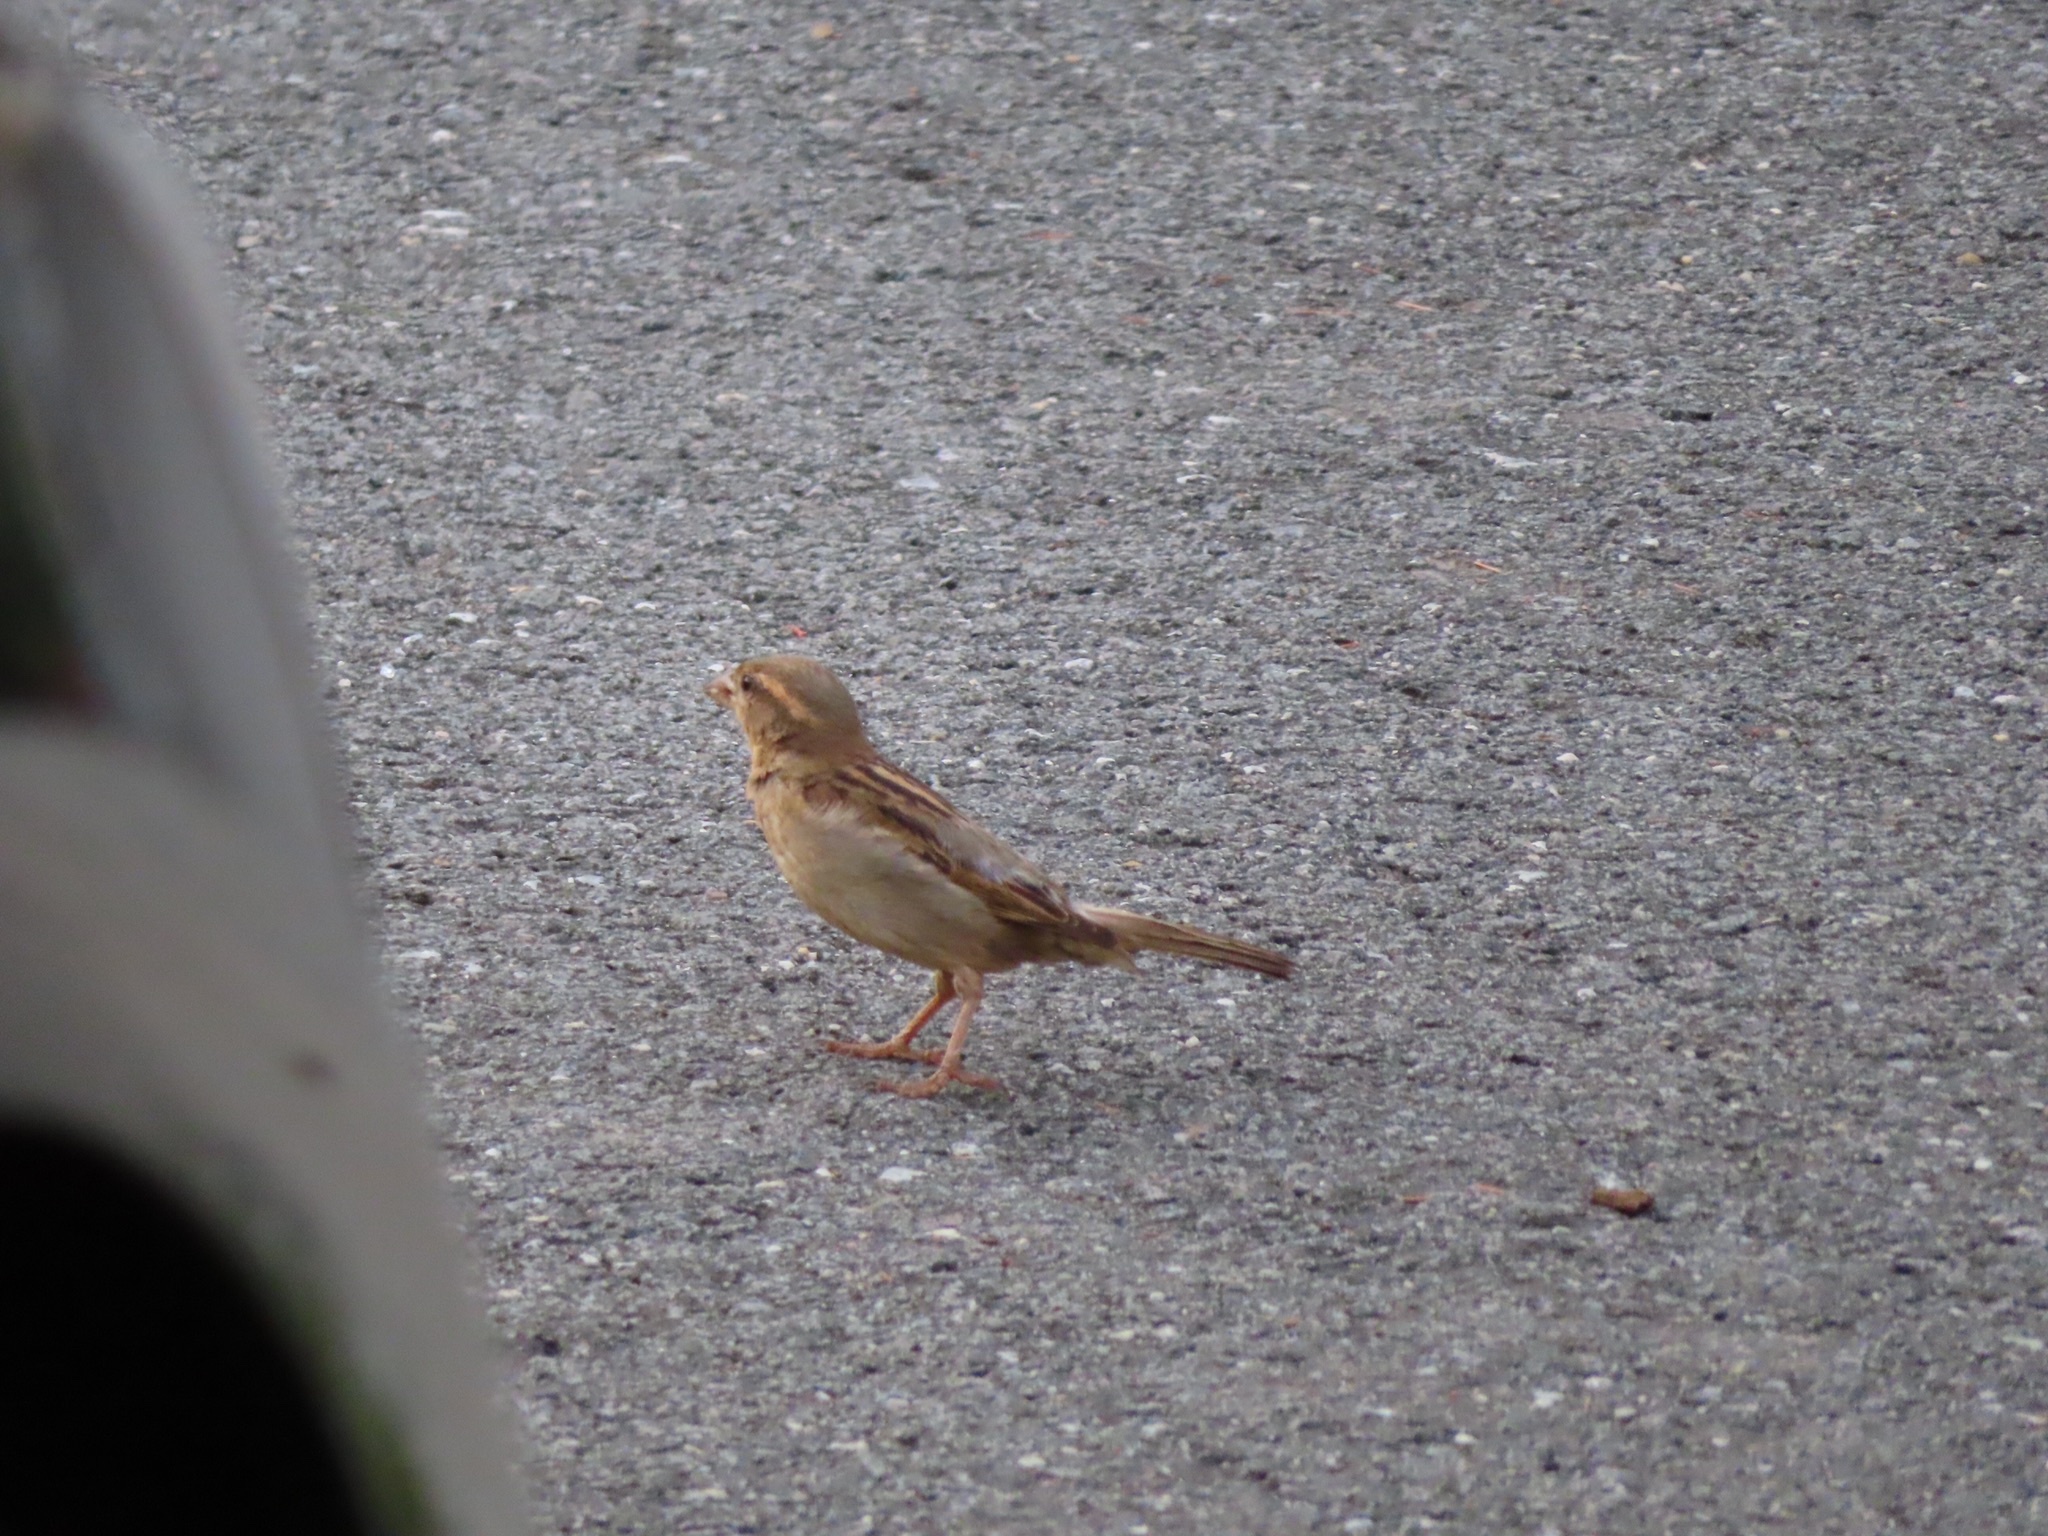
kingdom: Animalia
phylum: Chordata
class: Aves
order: Passeriformes
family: Passeridae
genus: Passer
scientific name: Passer domesticus
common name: House sparrow
